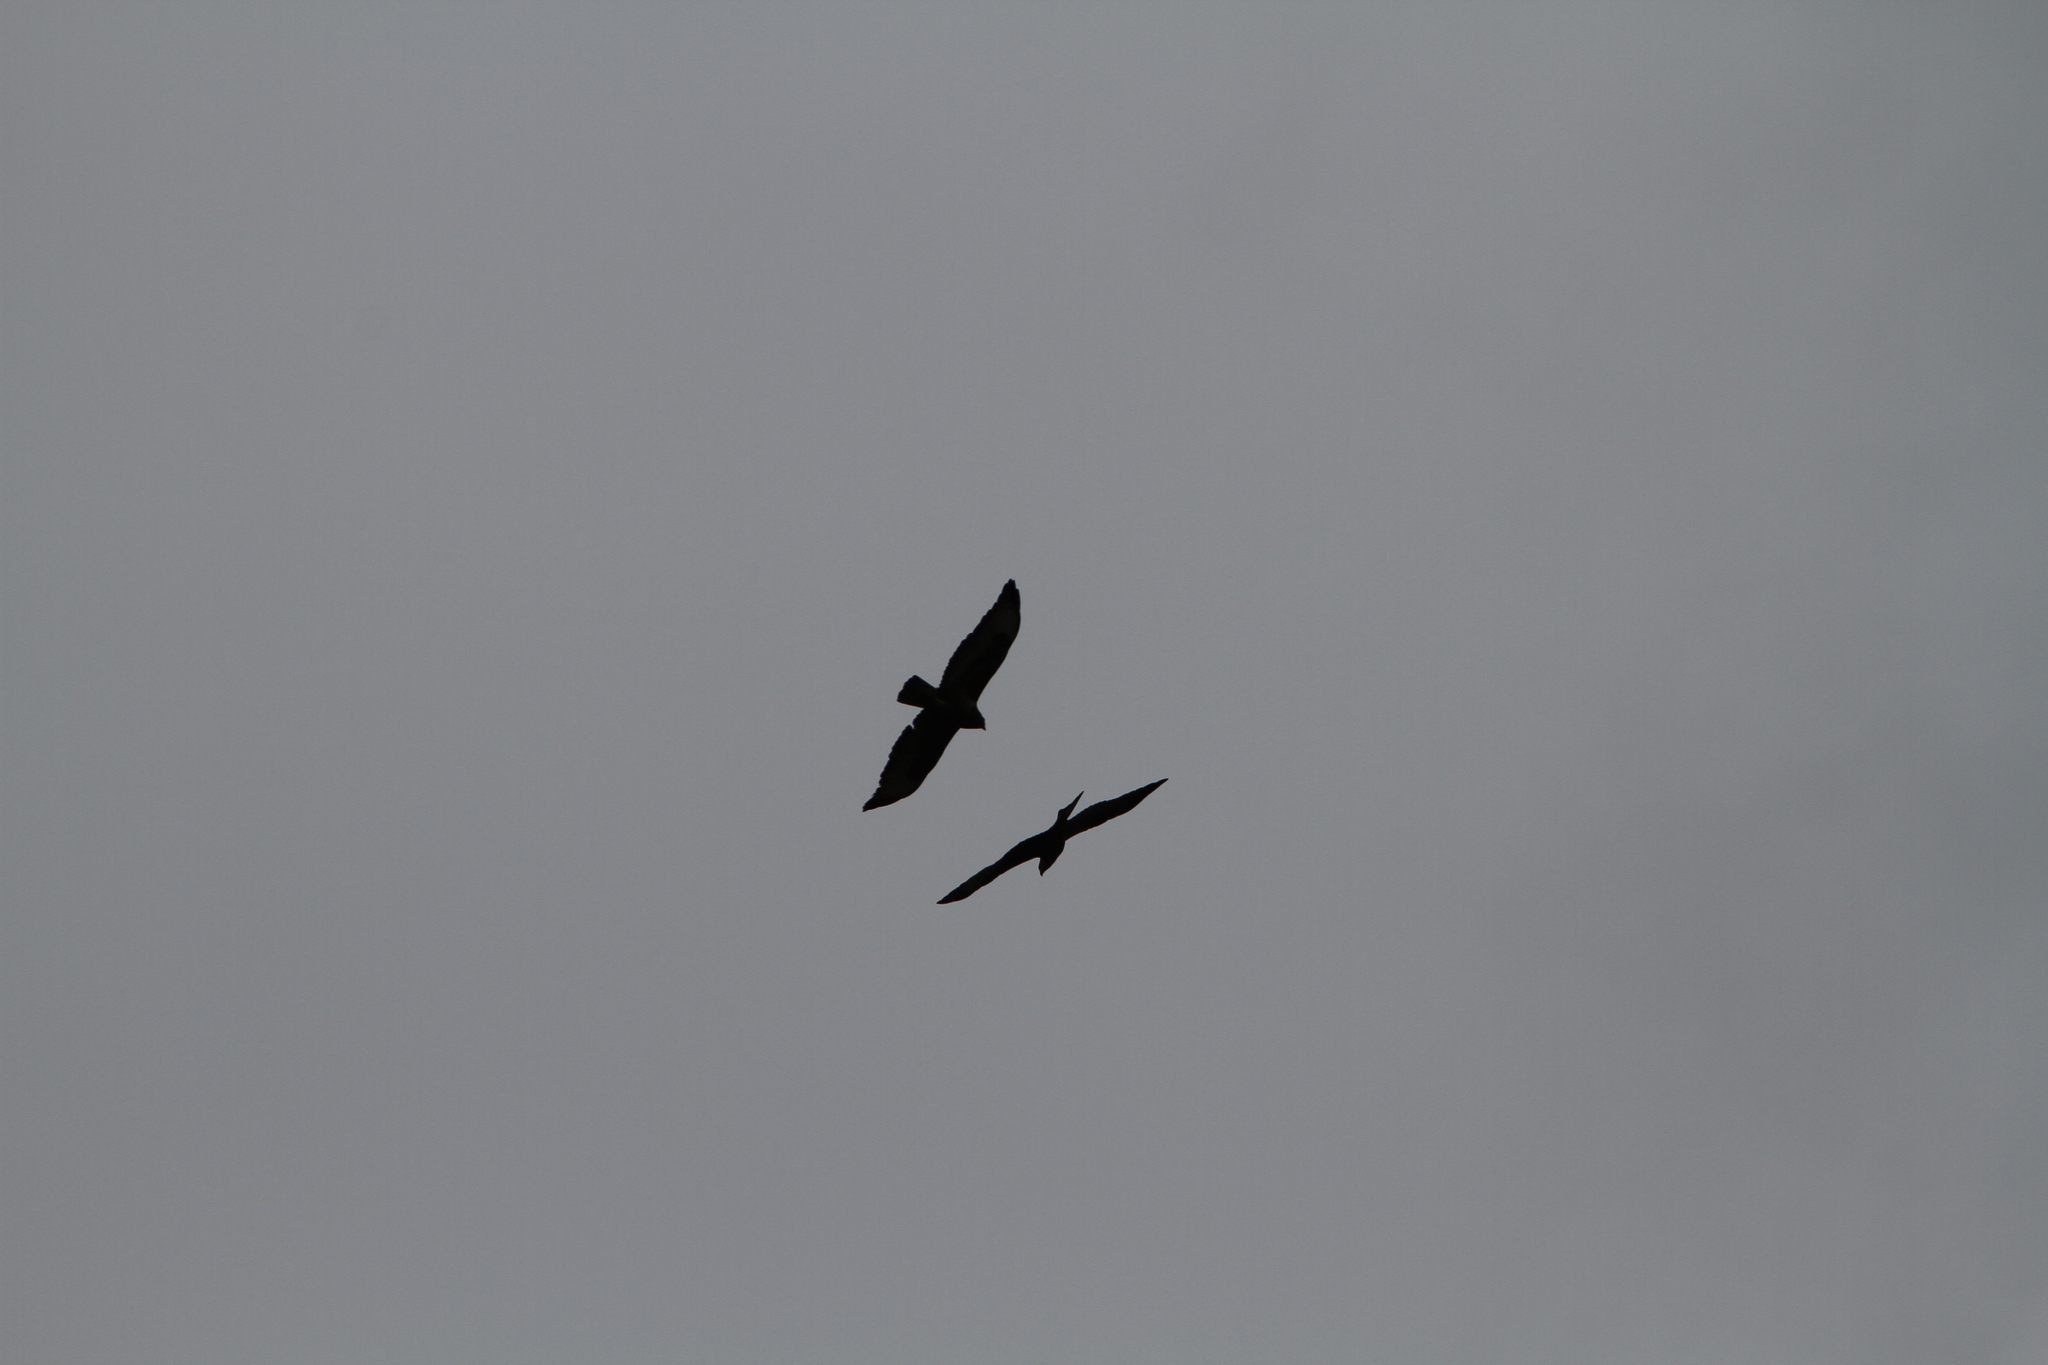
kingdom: Animalia
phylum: Chordata
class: Aves
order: Accipitriformes
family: Accipitridae
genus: Buteo
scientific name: Buteo buteo
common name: Common buzzard
